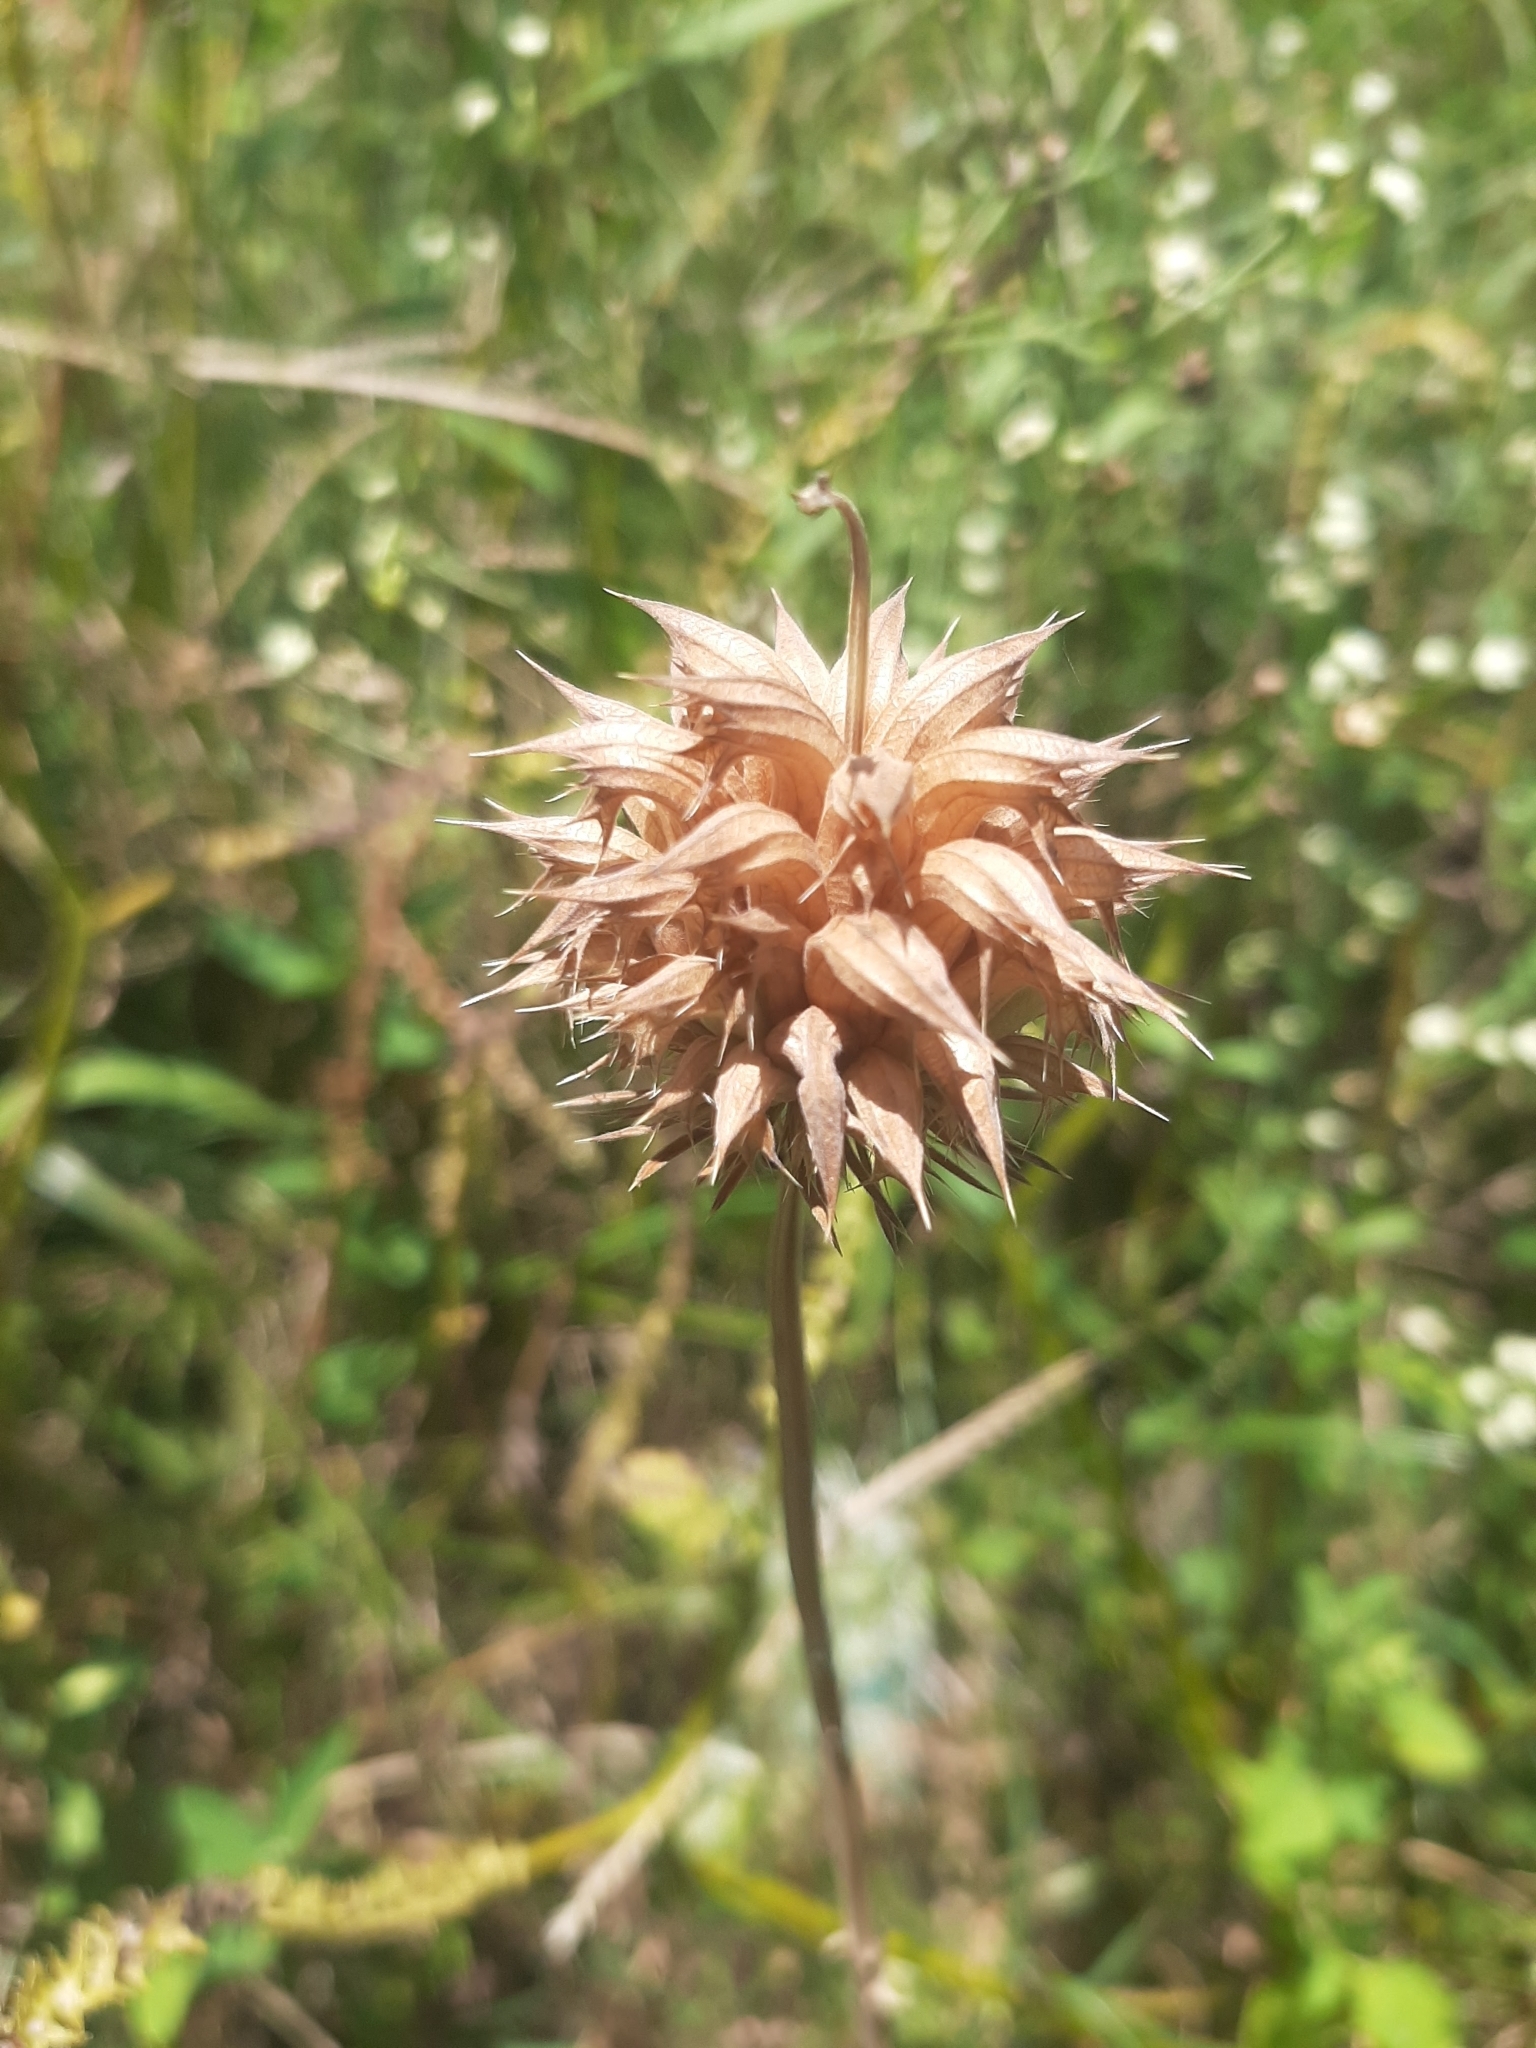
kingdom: Plantae
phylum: Tracheophyta
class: Magnoliopsida
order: Lamiales
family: Lamiaceae
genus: Leonotis
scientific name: Leonotis nepetifolia
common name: Christmas candlestick
